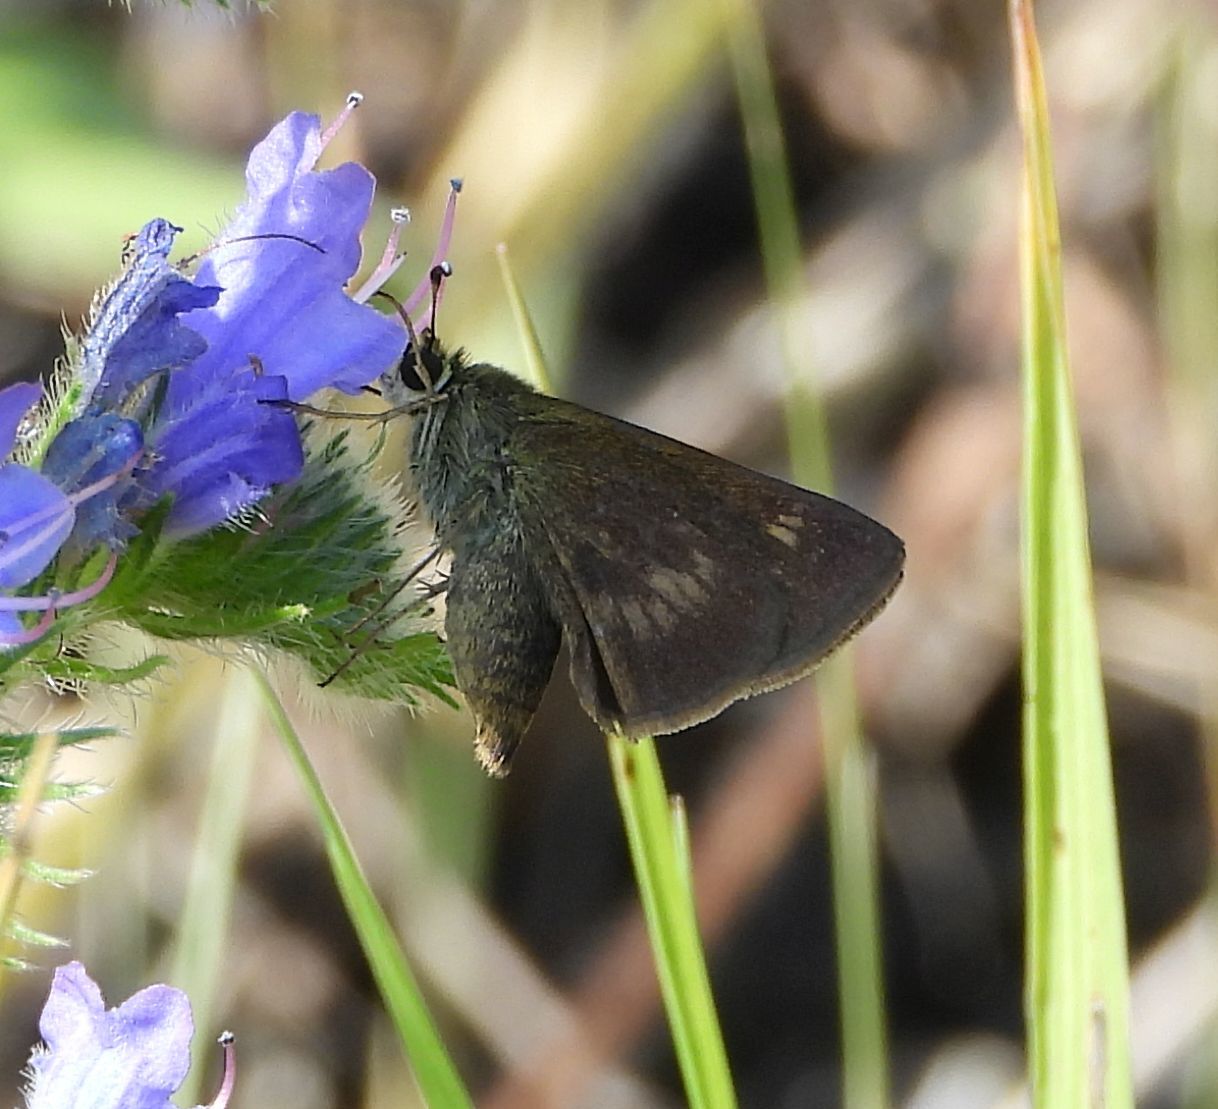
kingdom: Animalia
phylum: Arthropoda
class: Insecta
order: Lepidoptera
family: Hesperiidae
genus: Polites
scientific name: Polites egeremet
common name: Northern broken-dash
